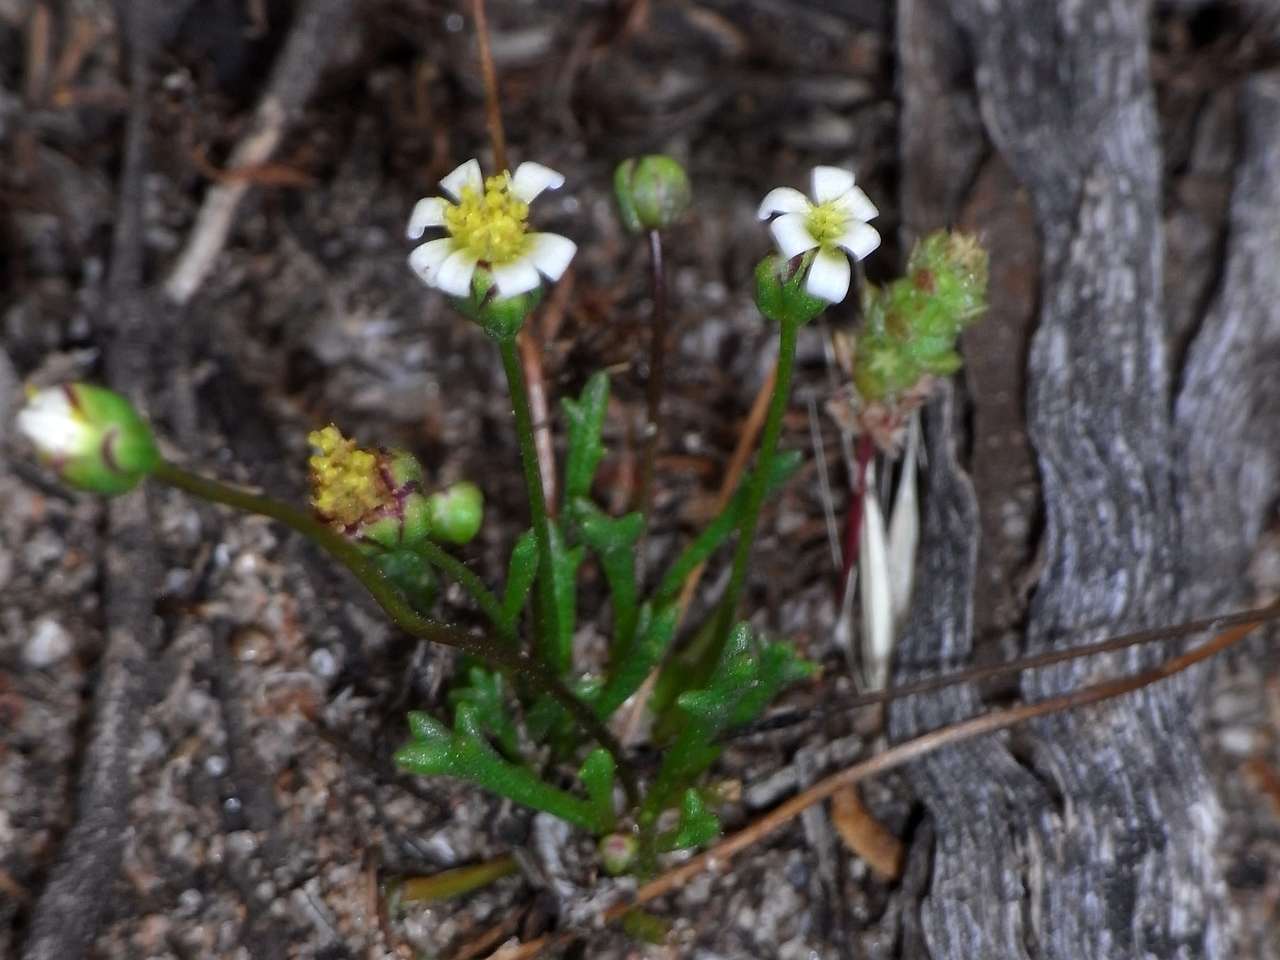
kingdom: Plantae
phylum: Tracheophyta
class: Magnoliopsida
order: Asterales
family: Asteraceae
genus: Brachyscome
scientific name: Brachyscome lineariloba
